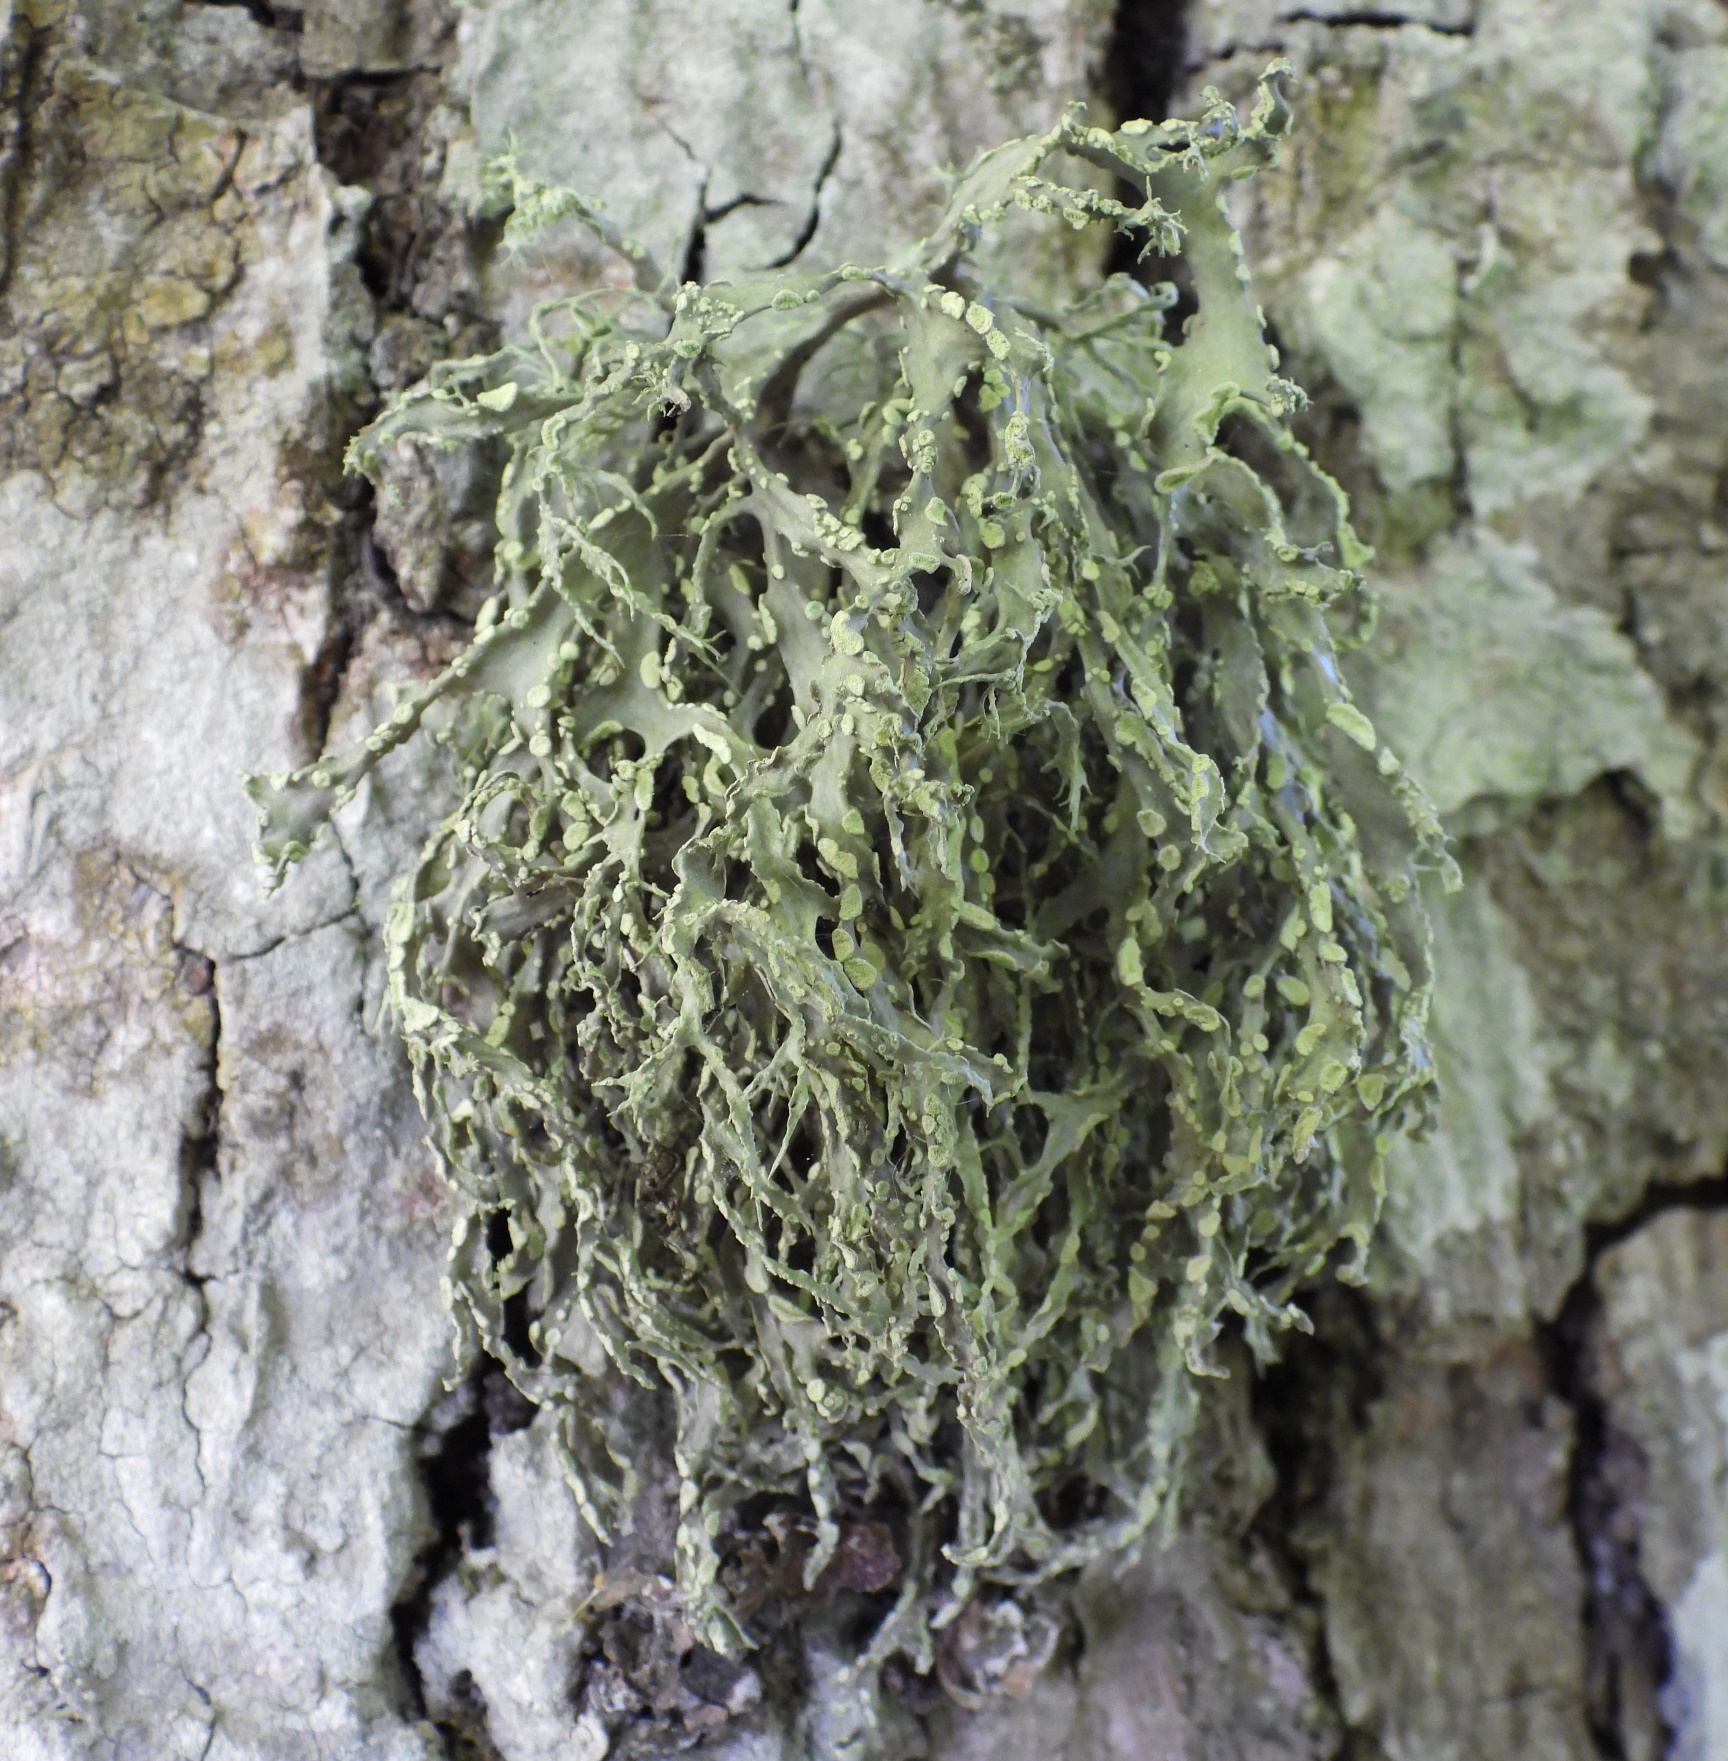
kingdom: Fungi
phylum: Ascomycota
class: Lecanoromycetes
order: Lecanorales
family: Ramalinaceae
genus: Ramalina
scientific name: Ramalina farinacea
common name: Farinose cartilage lichen
